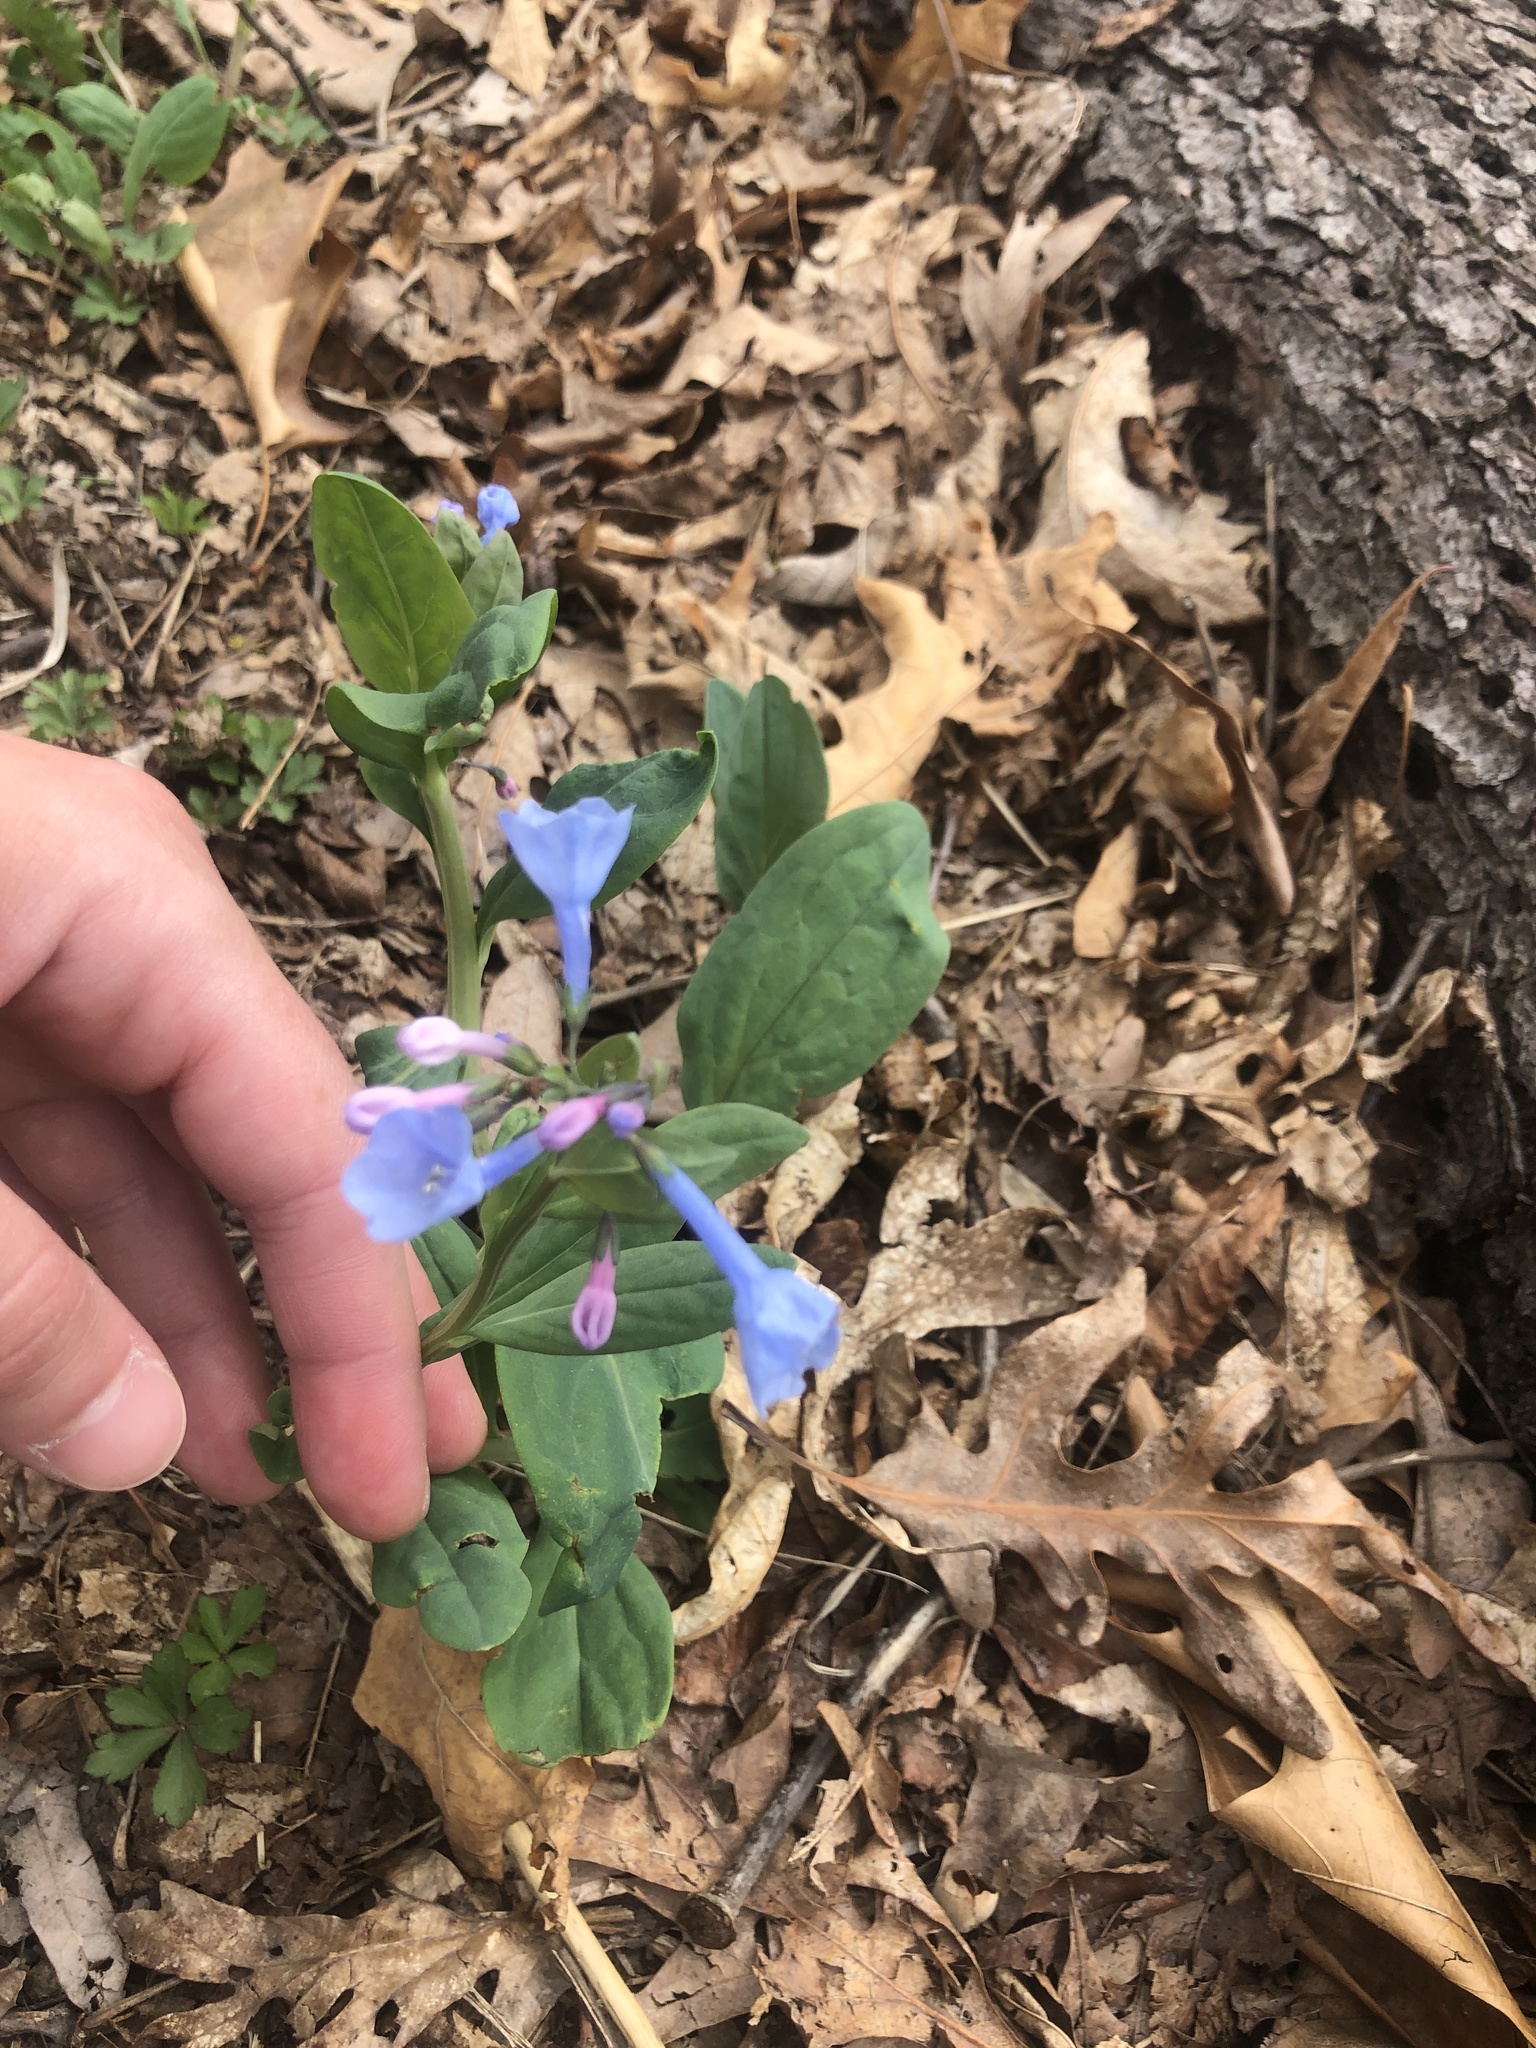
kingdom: Plantae
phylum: Tracheophyta
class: Magnoliopsida
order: Boraginales
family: Boraginaceae
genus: Mertensia
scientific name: Mertensia virginica
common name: Virginia bluebells
